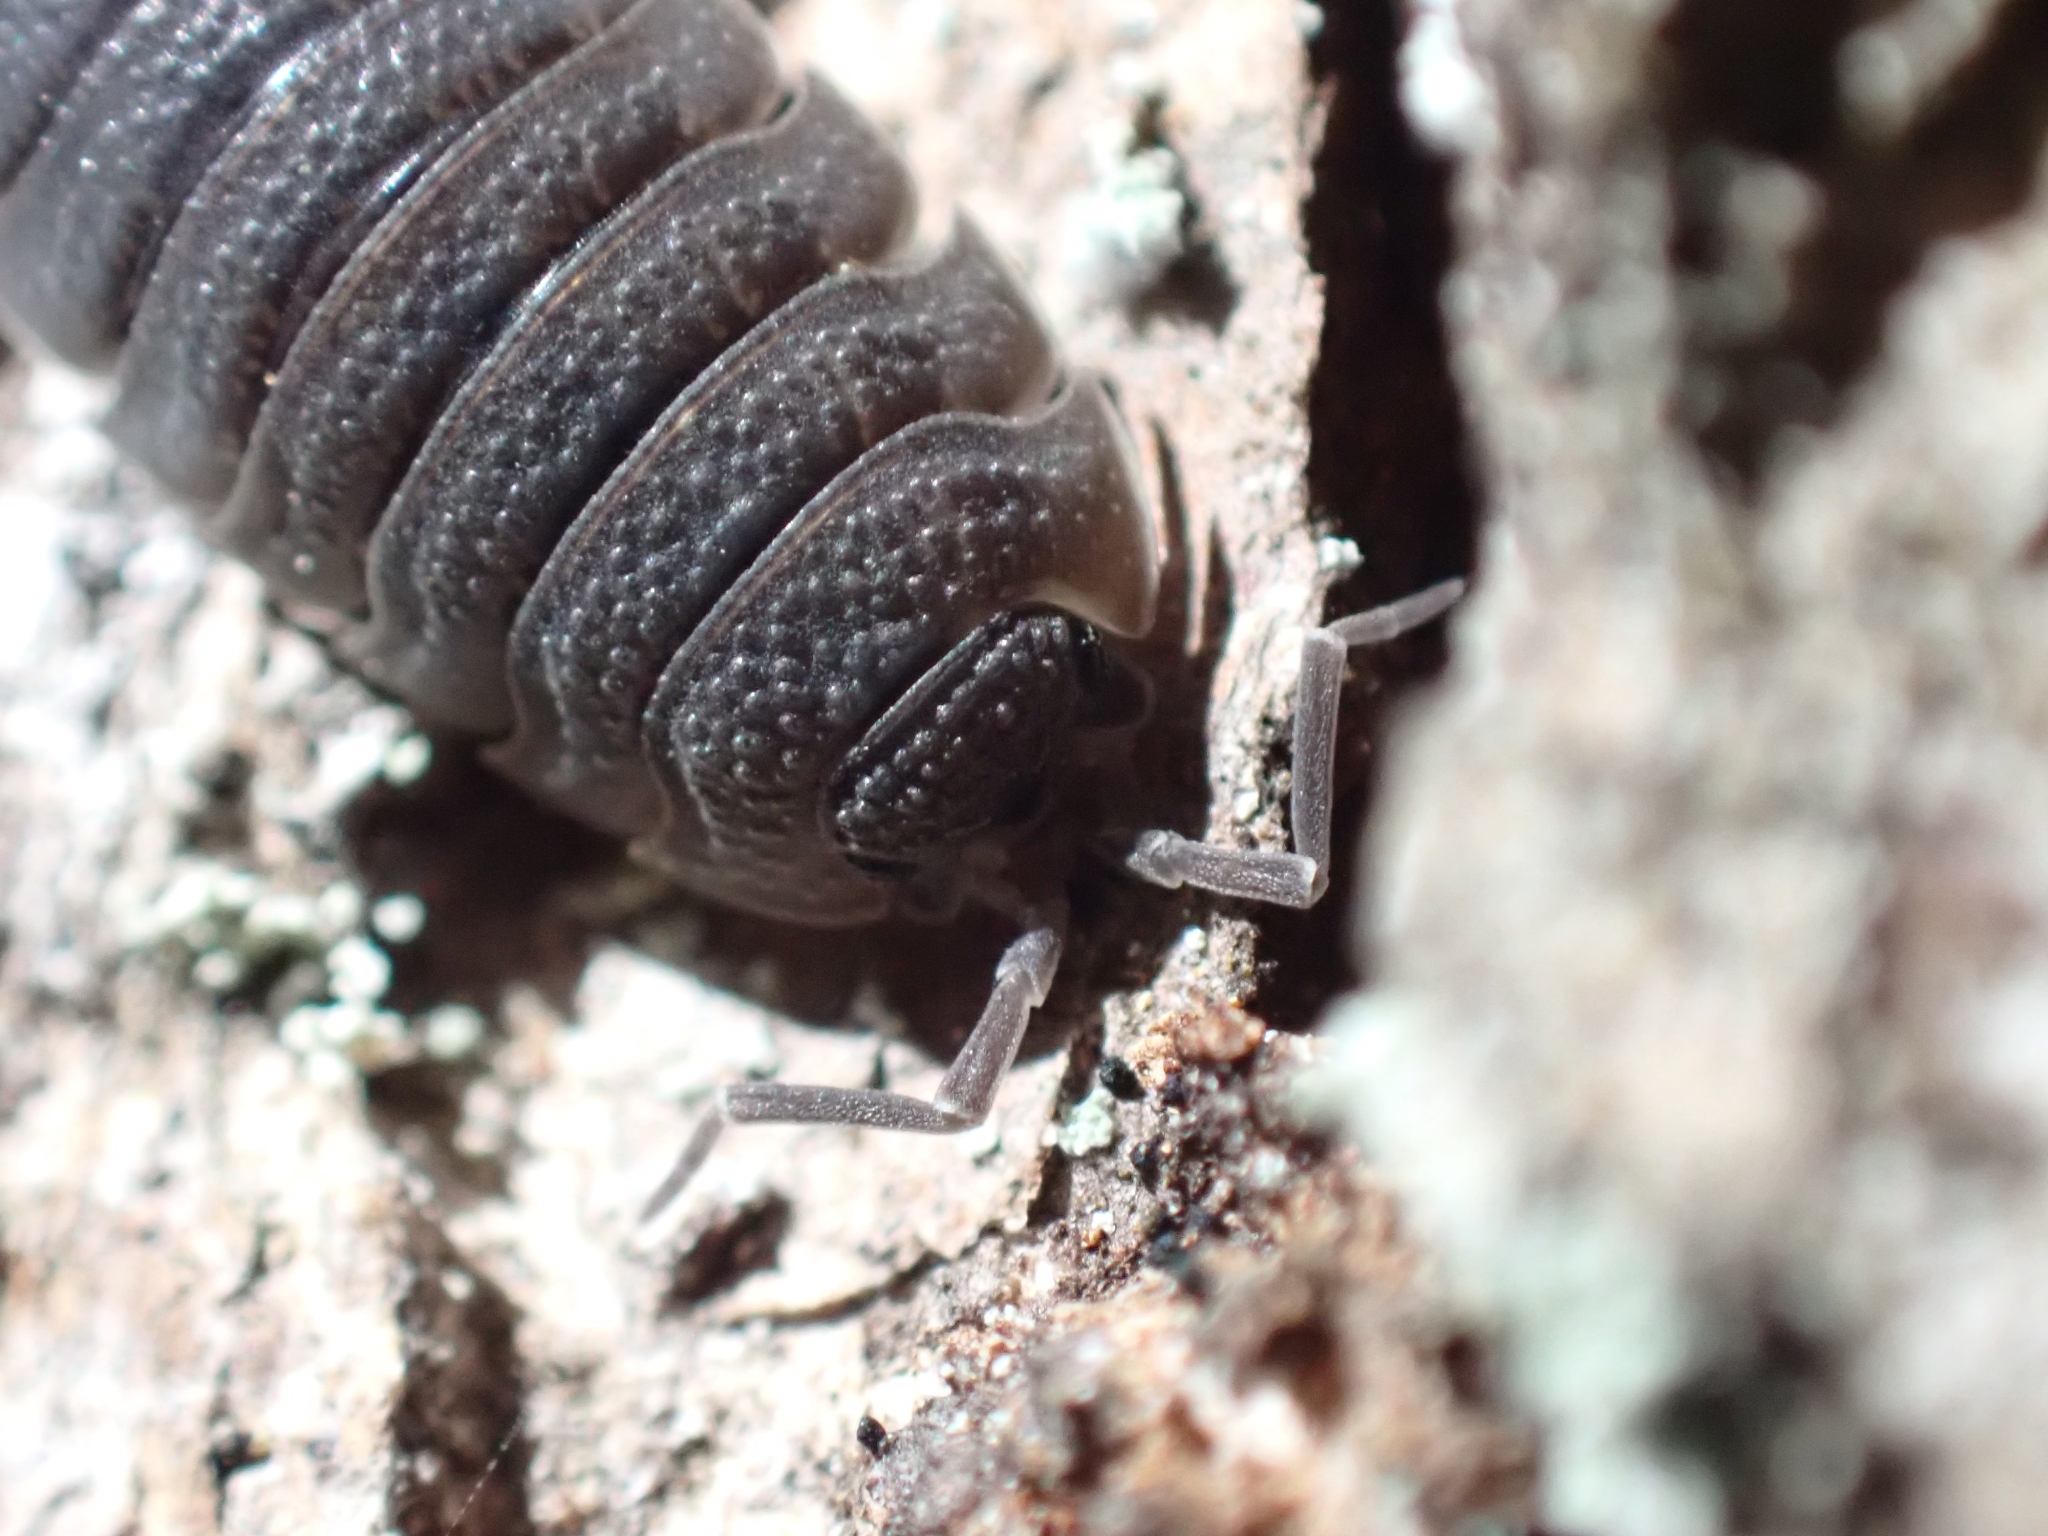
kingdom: Animalia
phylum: Arthropoda
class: Malacostraca
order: Isopoda
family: Porcellionidae
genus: Porcellio
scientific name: Porcellio scaber
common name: Common rough woodlouse
